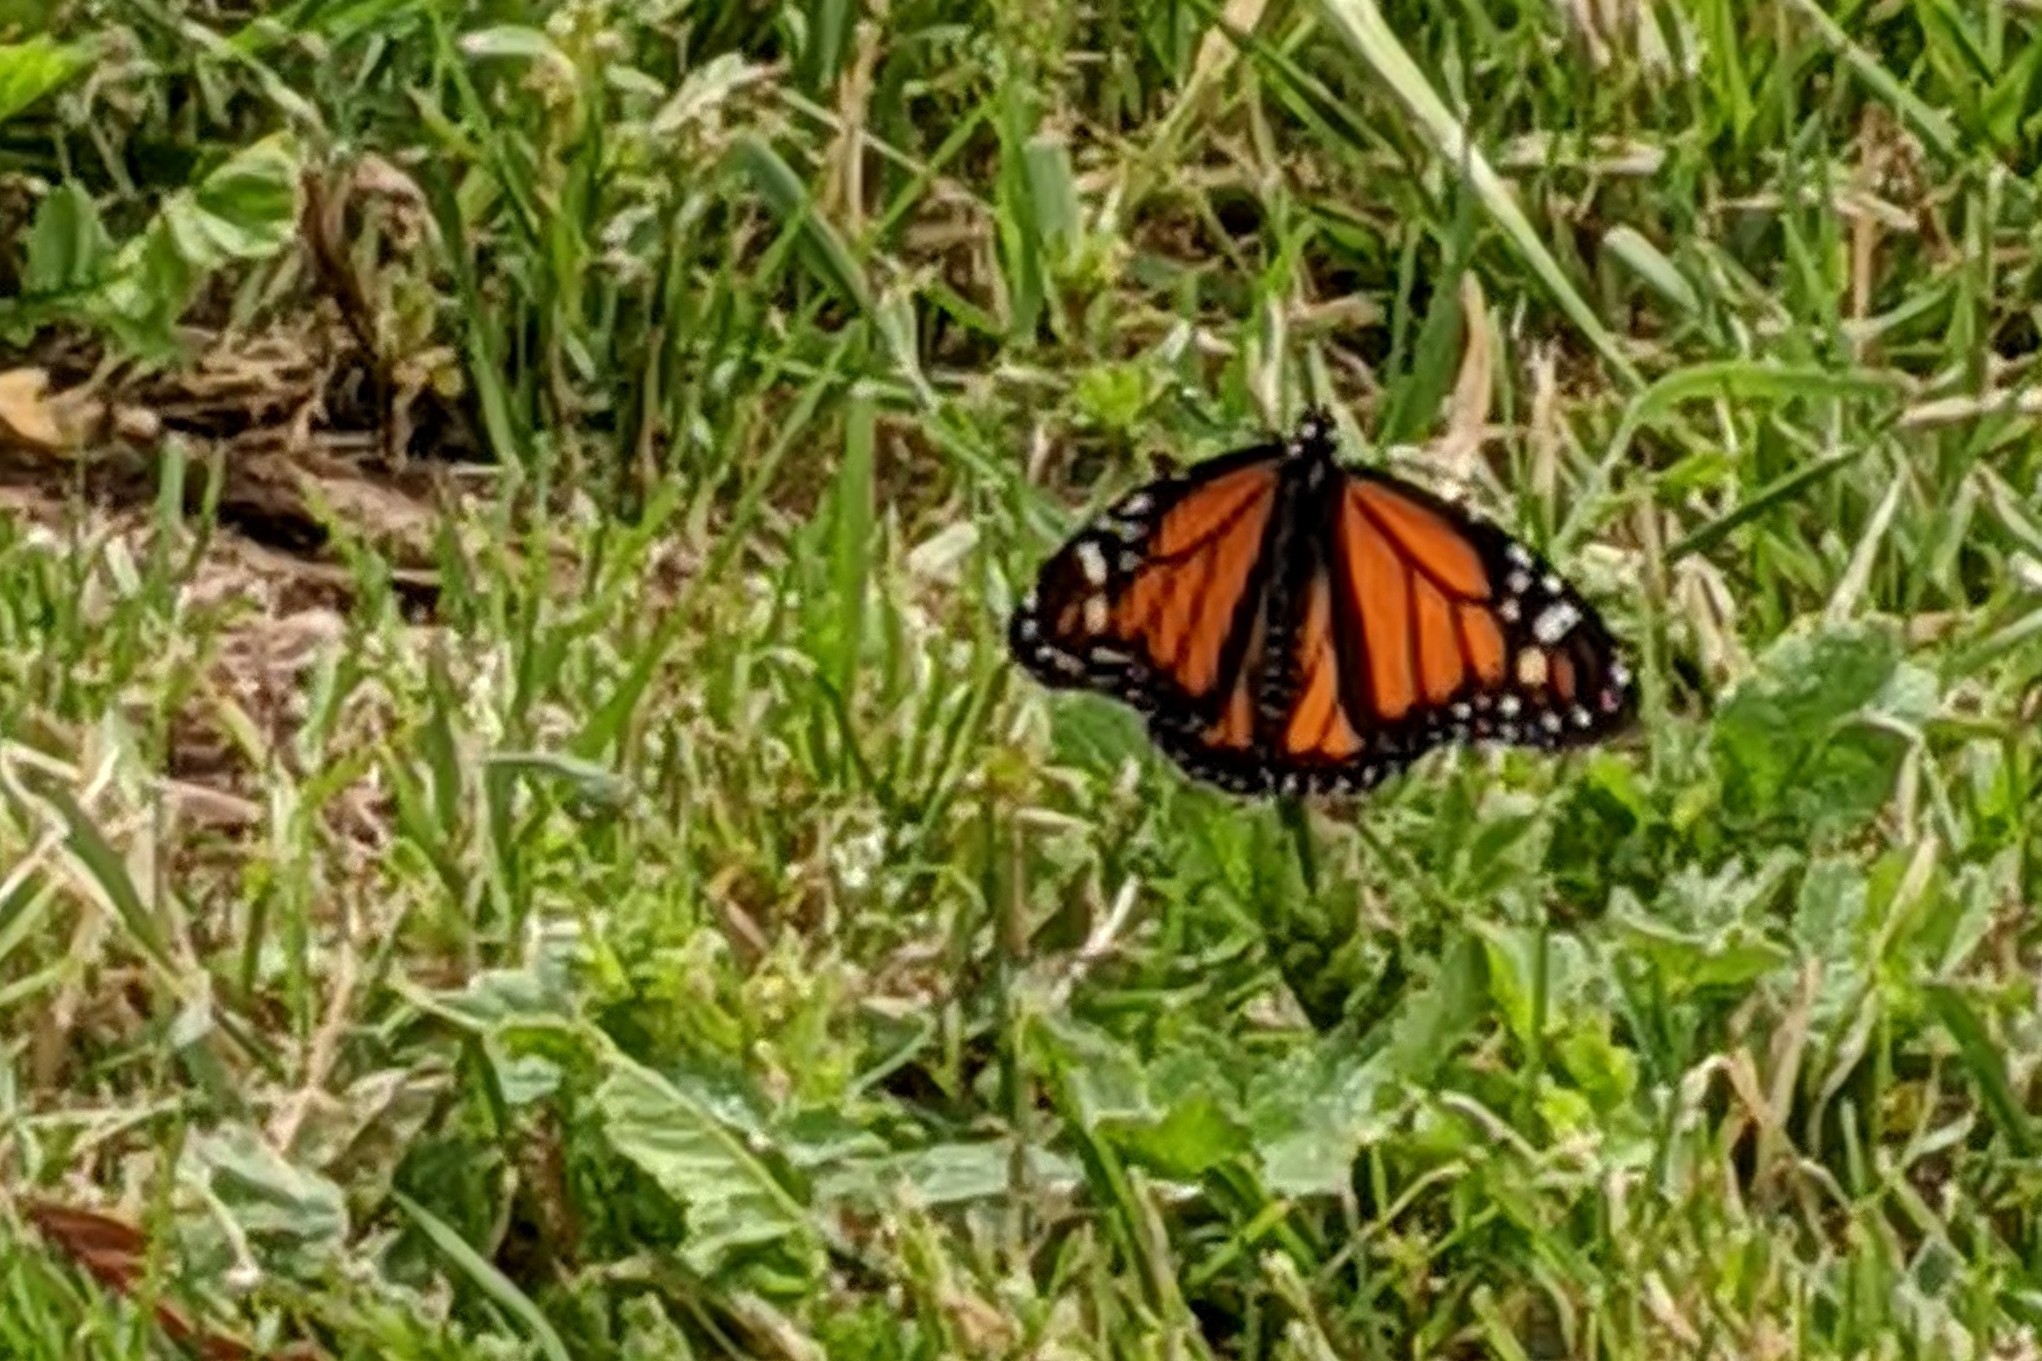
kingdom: Animalia
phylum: Arthropoda
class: Insecta
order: Lepidoptera
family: Nymphalidae
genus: Danaus
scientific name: Danaus plexippus
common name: Monarch
